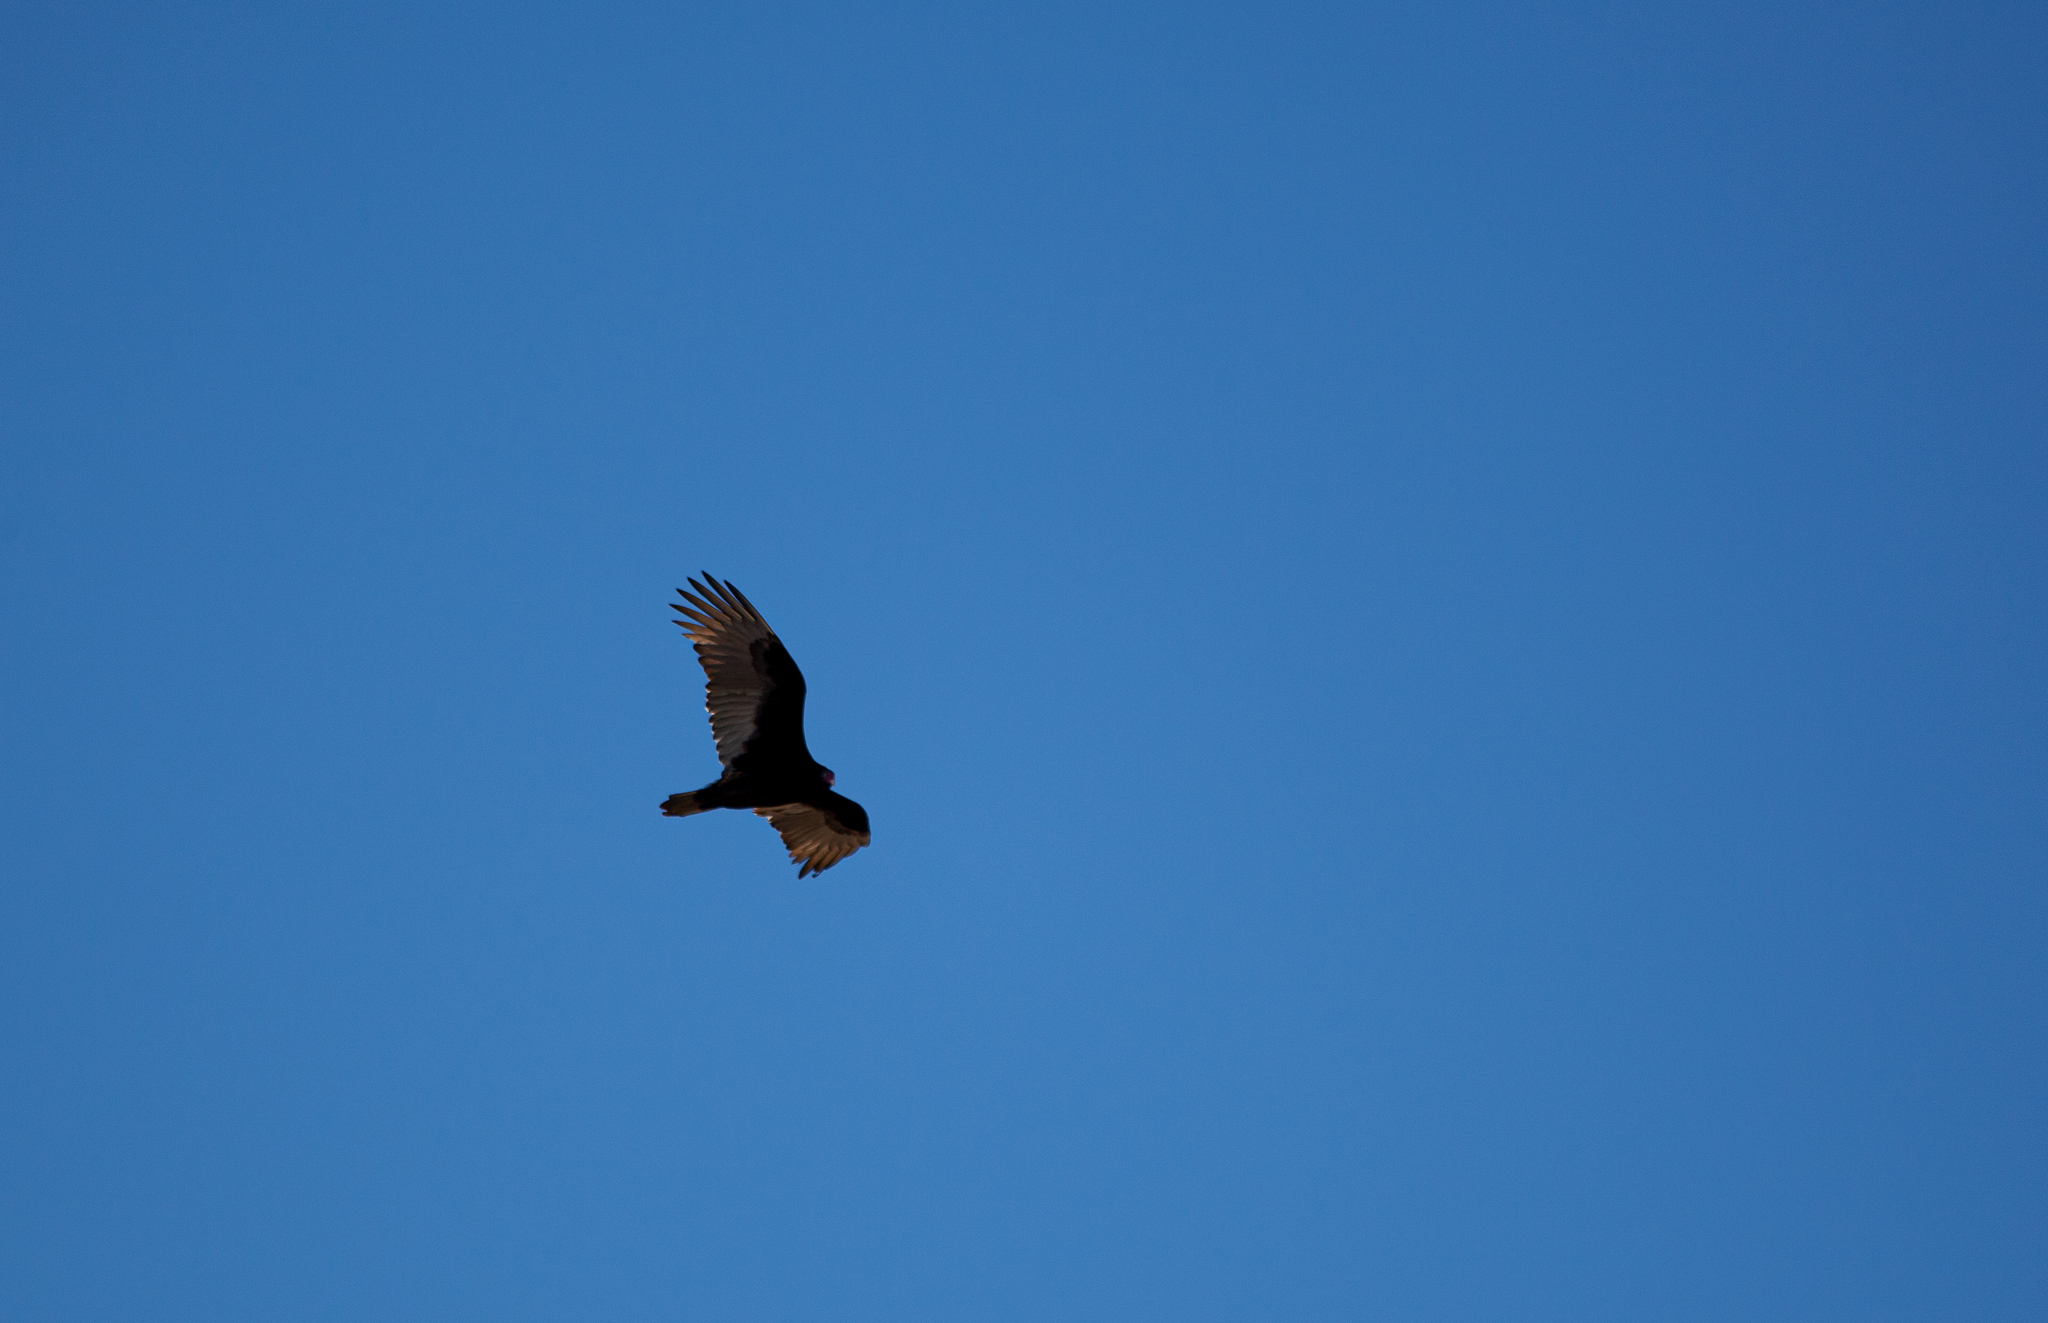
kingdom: Animalia
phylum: Chordata
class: Aves
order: Accipitriformes
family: Cathartidae
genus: Cathartes
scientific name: Cathartes aura
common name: Turkey vulture
